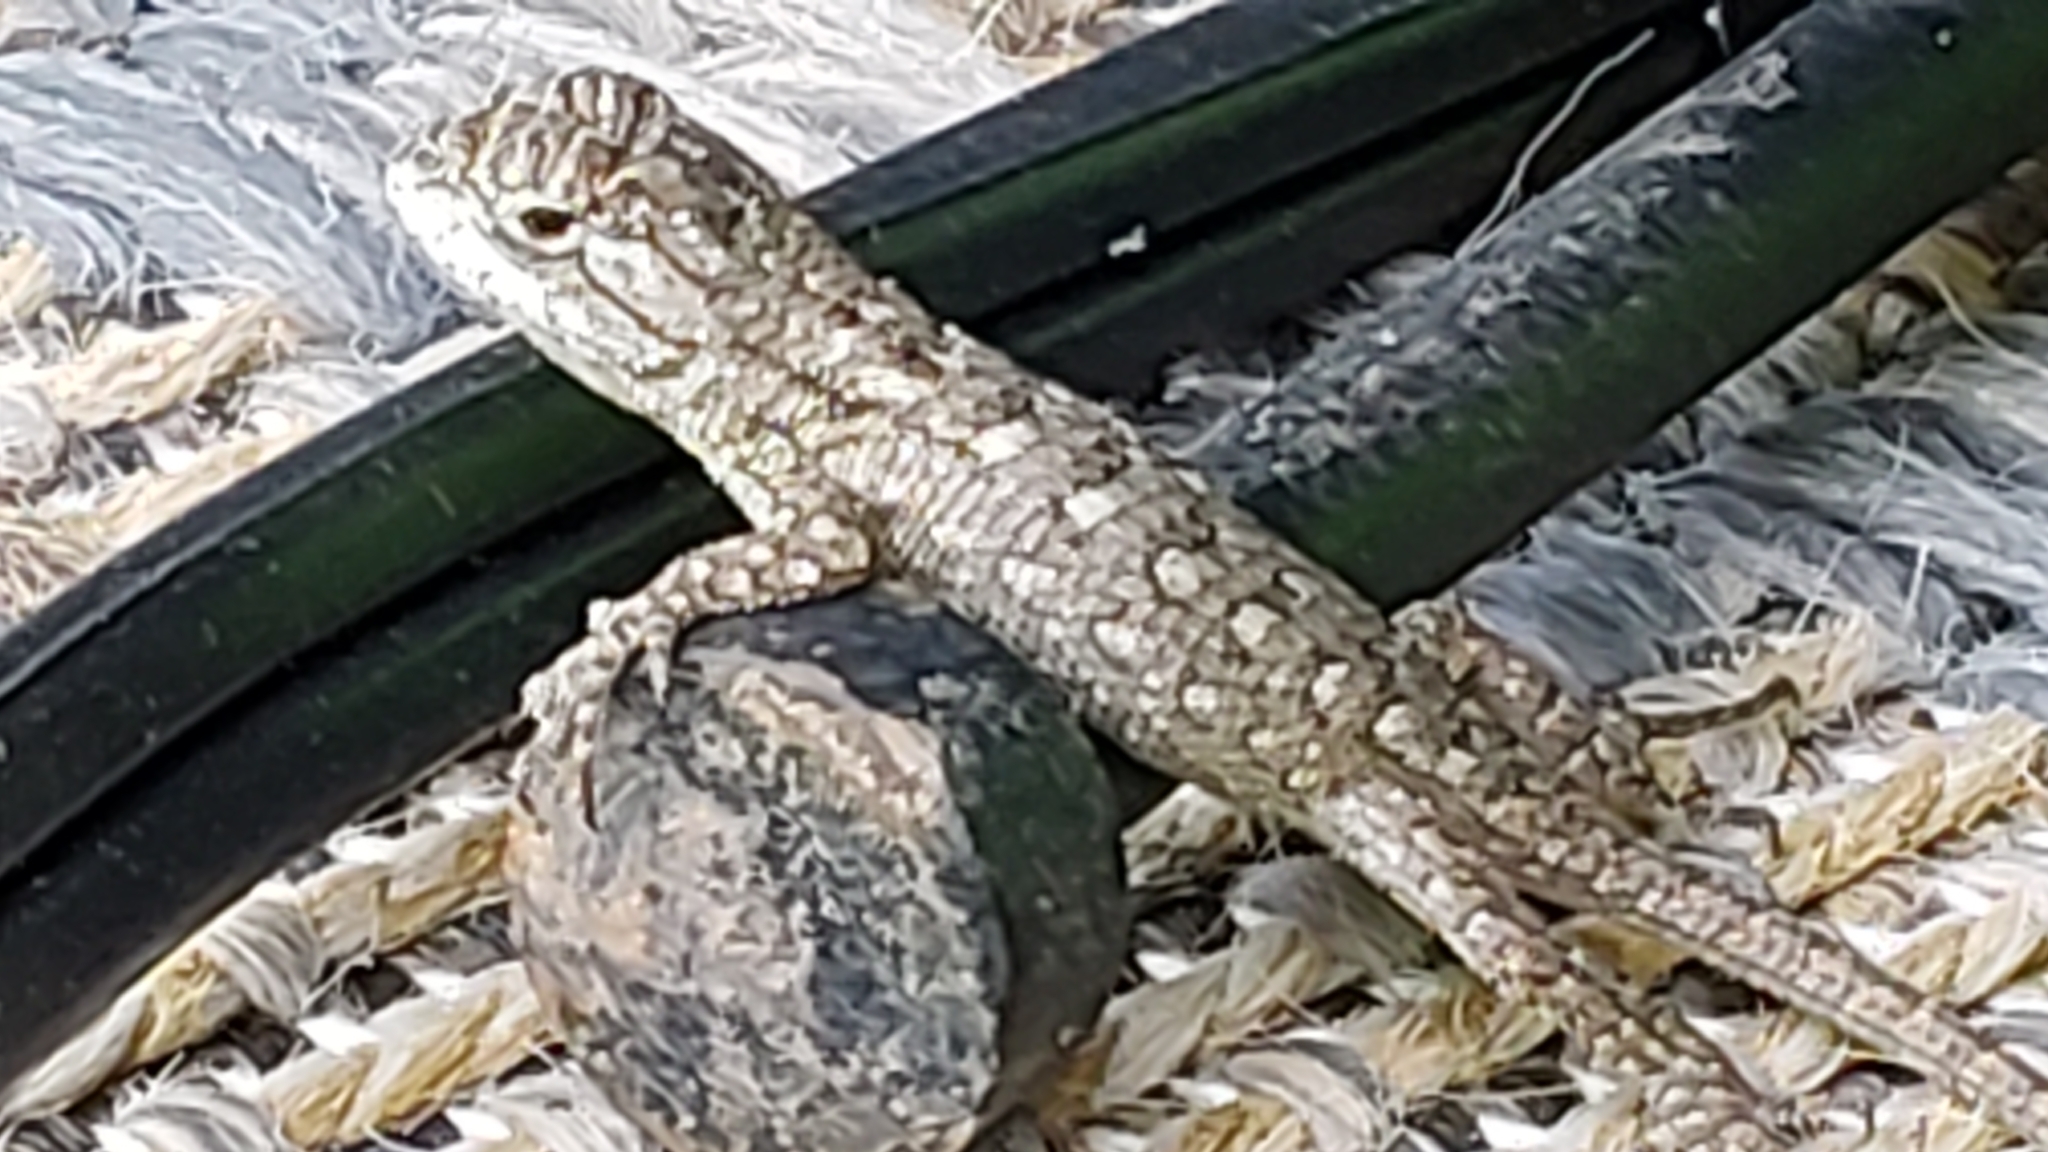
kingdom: Animalia
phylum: Chordata
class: Squamata
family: Phrynosomatidae
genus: Sceloporus
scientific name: Sceloporus olivaceus
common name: Texas spiny lizard
